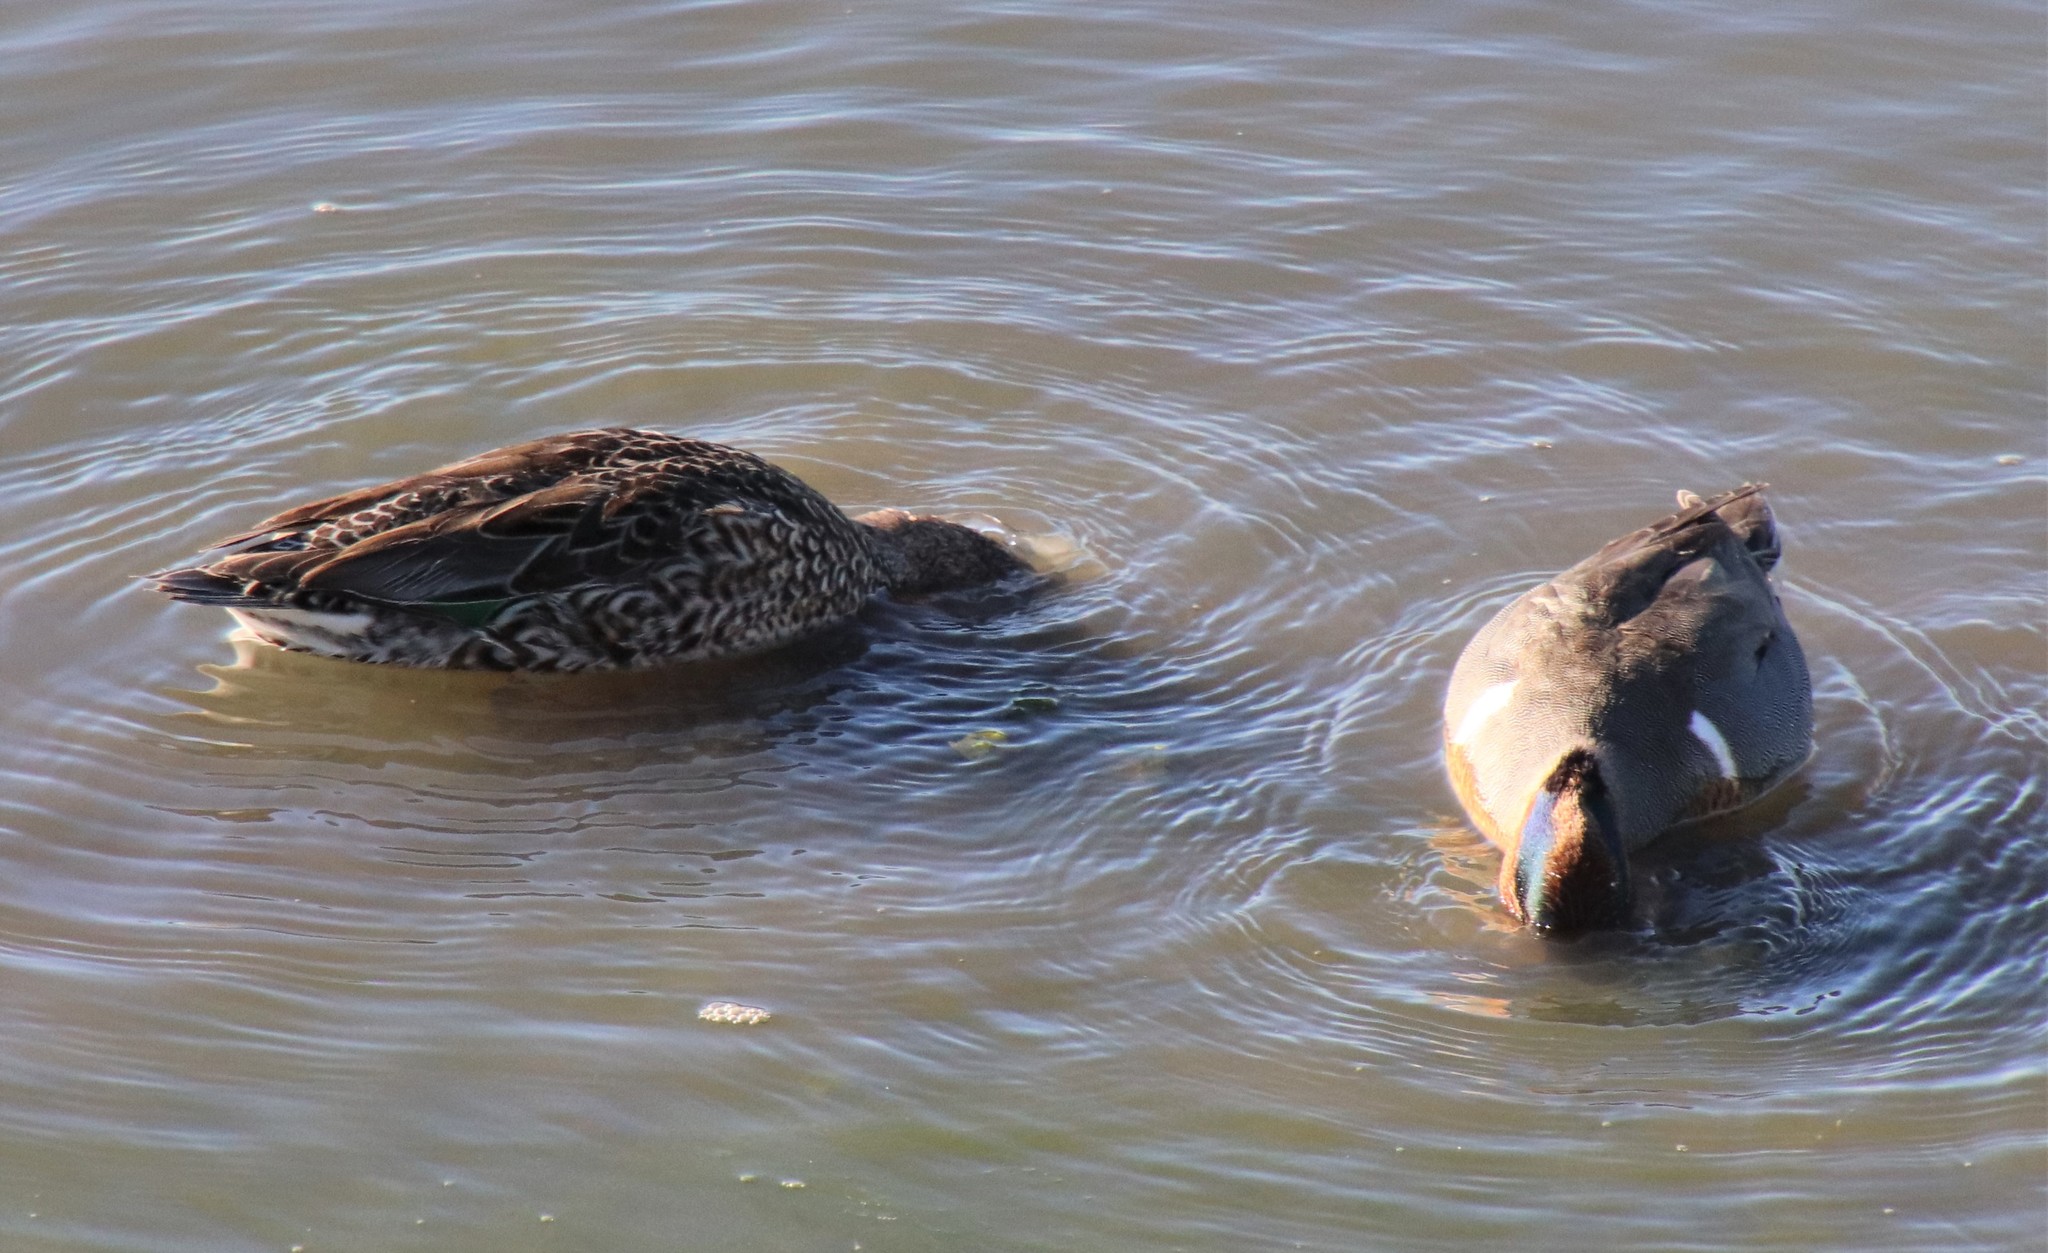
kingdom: Animalia
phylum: Chordata
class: Aves
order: Anseriformes
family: Anatidae
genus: Anas
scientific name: Anas crecca
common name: Eurasian teal
